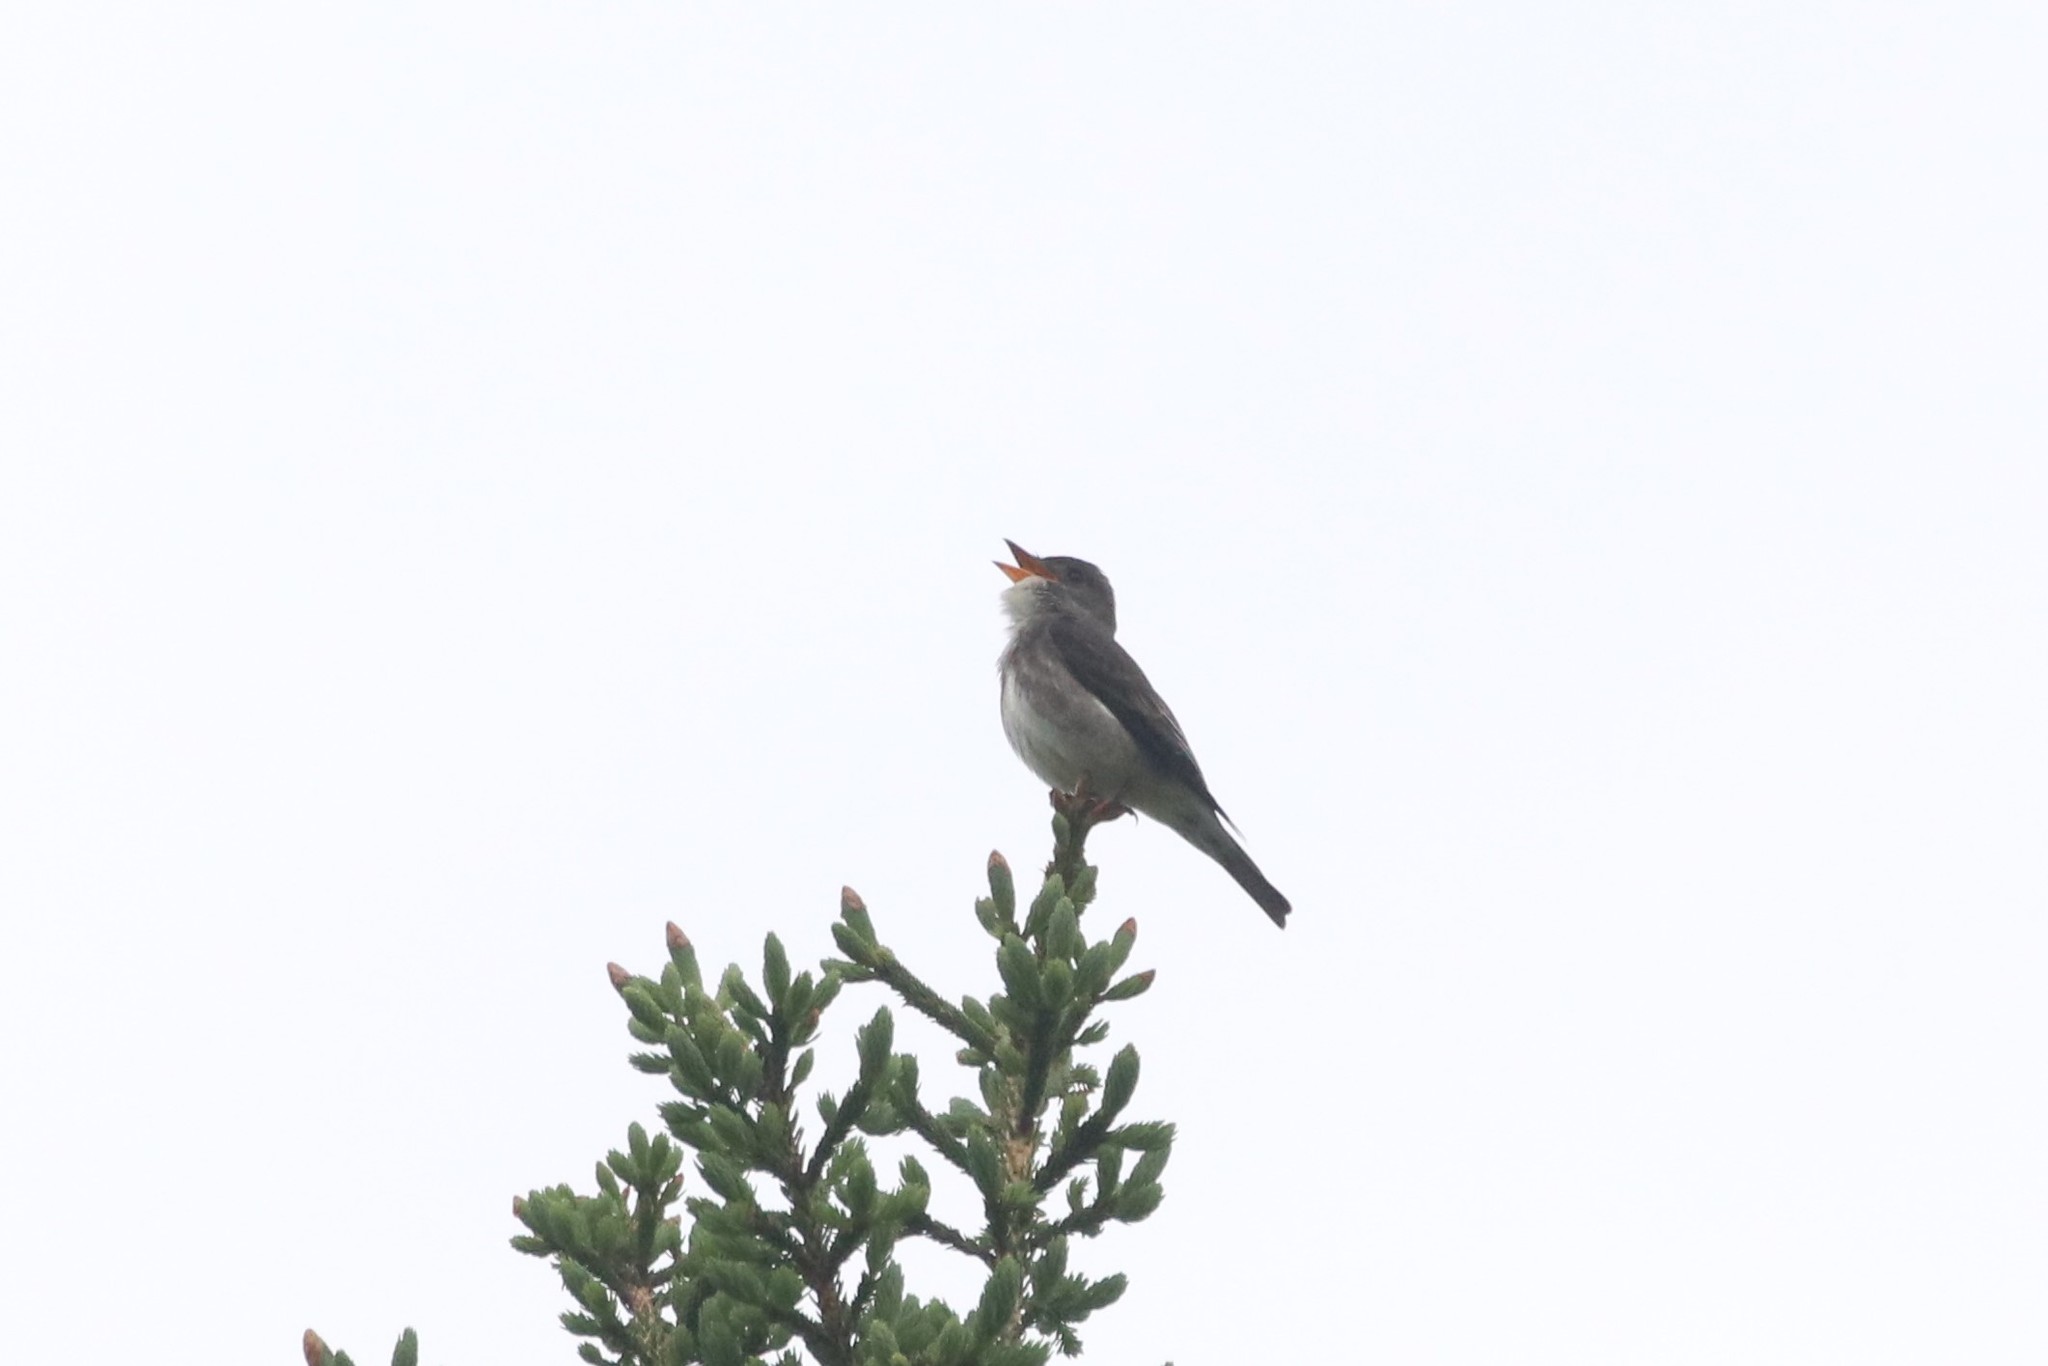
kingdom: Animalia
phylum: Chordata
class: Aves
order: Passeriformes
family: Tyrannidae
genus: Contopus
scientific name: Contopus cooperi
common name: Olive-sided flycatcher
